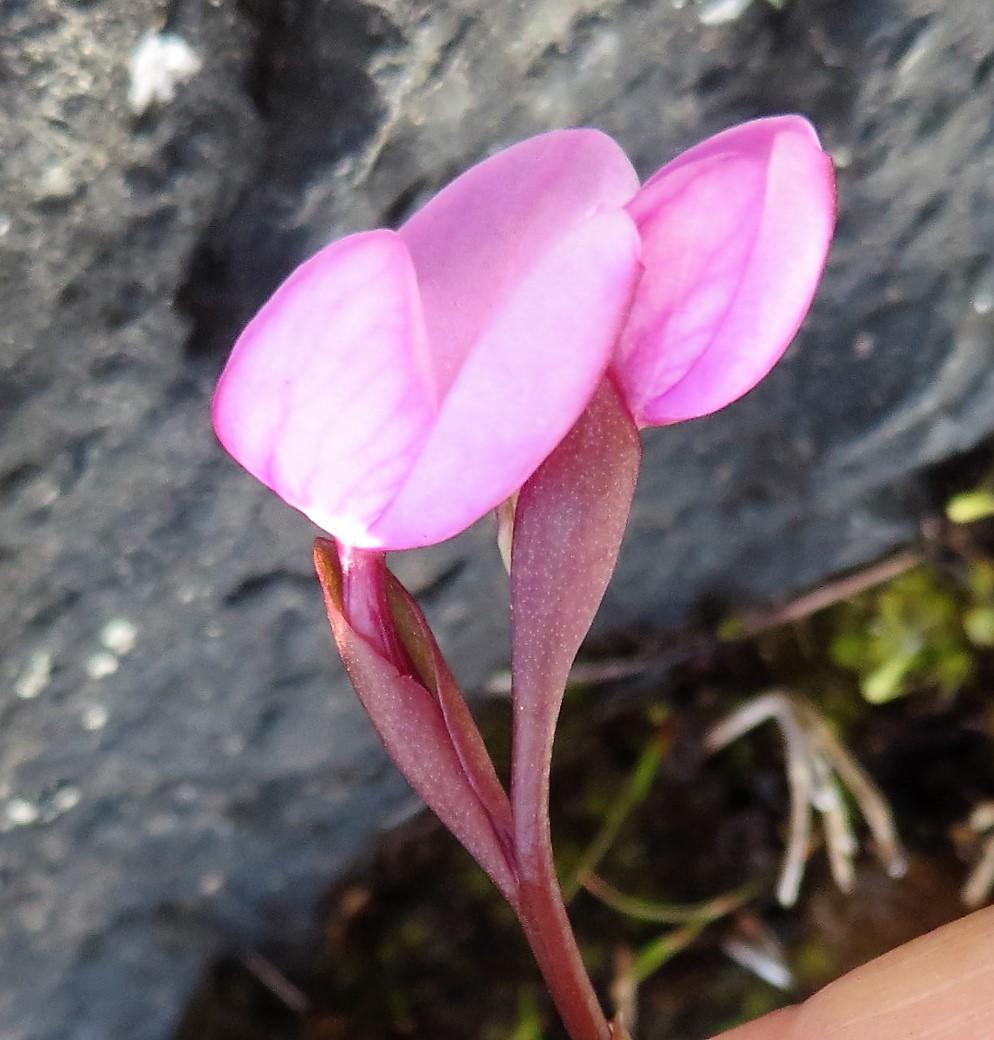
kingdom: Plantae
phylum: Tracheophyta
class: Liliopsida
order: Asparagales
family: Orchidaceae
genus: Disa
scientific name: Disa pillansii
